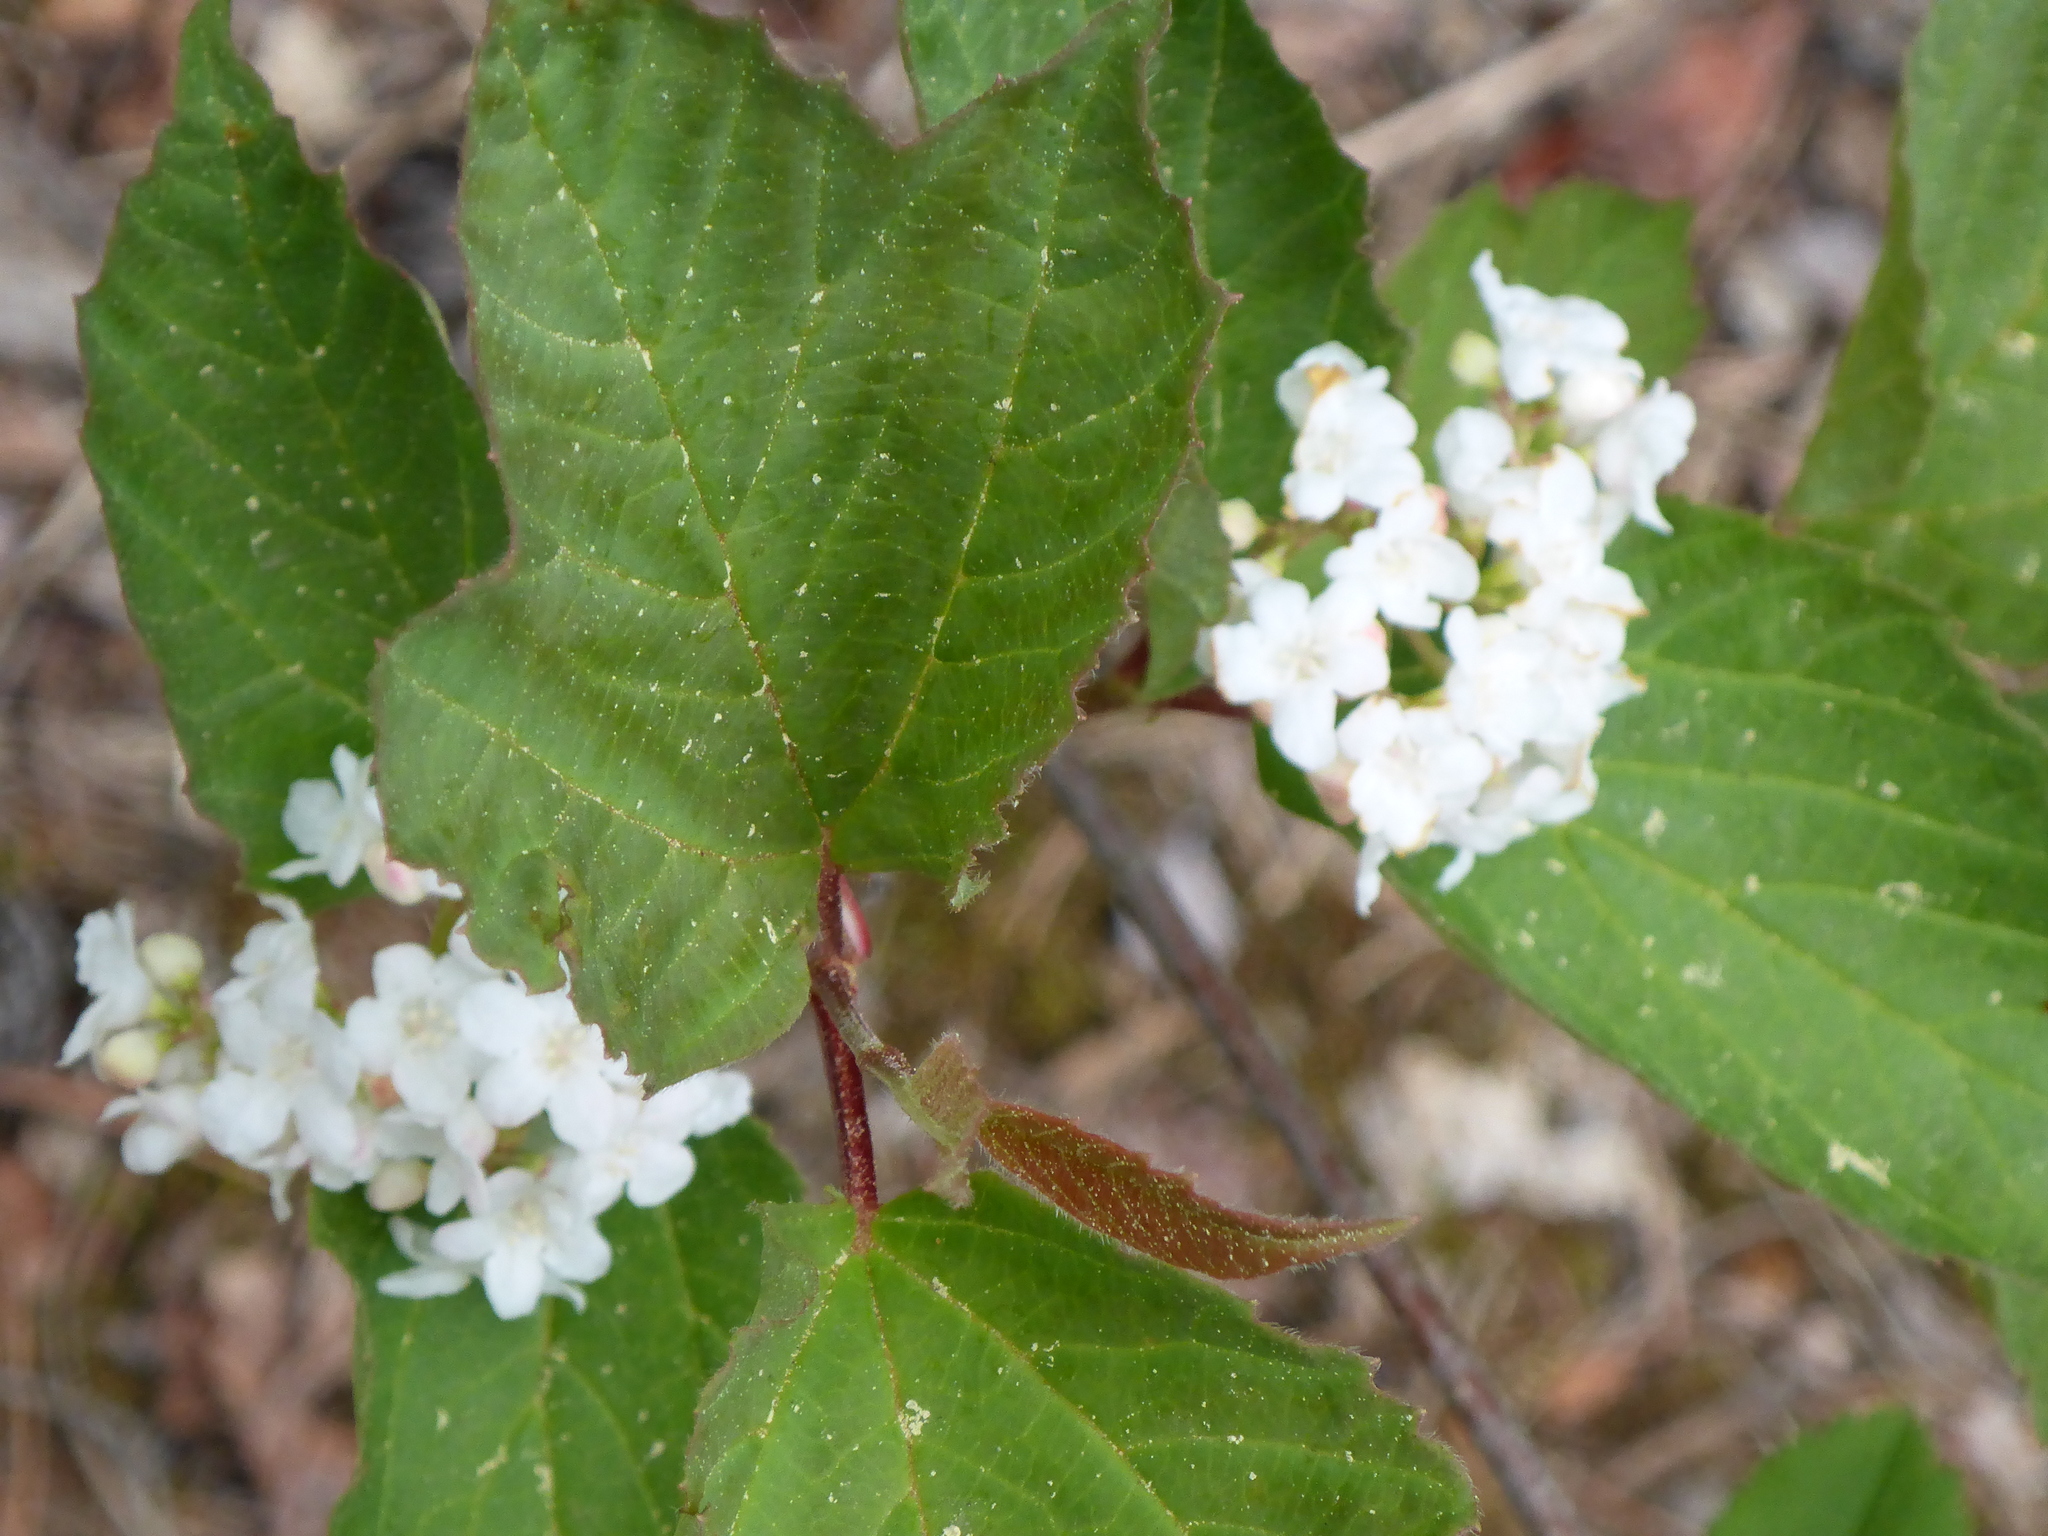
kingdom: Plantae
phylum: Tracheophyta
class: Magnoliopsida
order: Dipsacales
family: Viburnaceae
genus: Viburnum
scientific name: Viburnum opulus
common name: Guelder-rose
